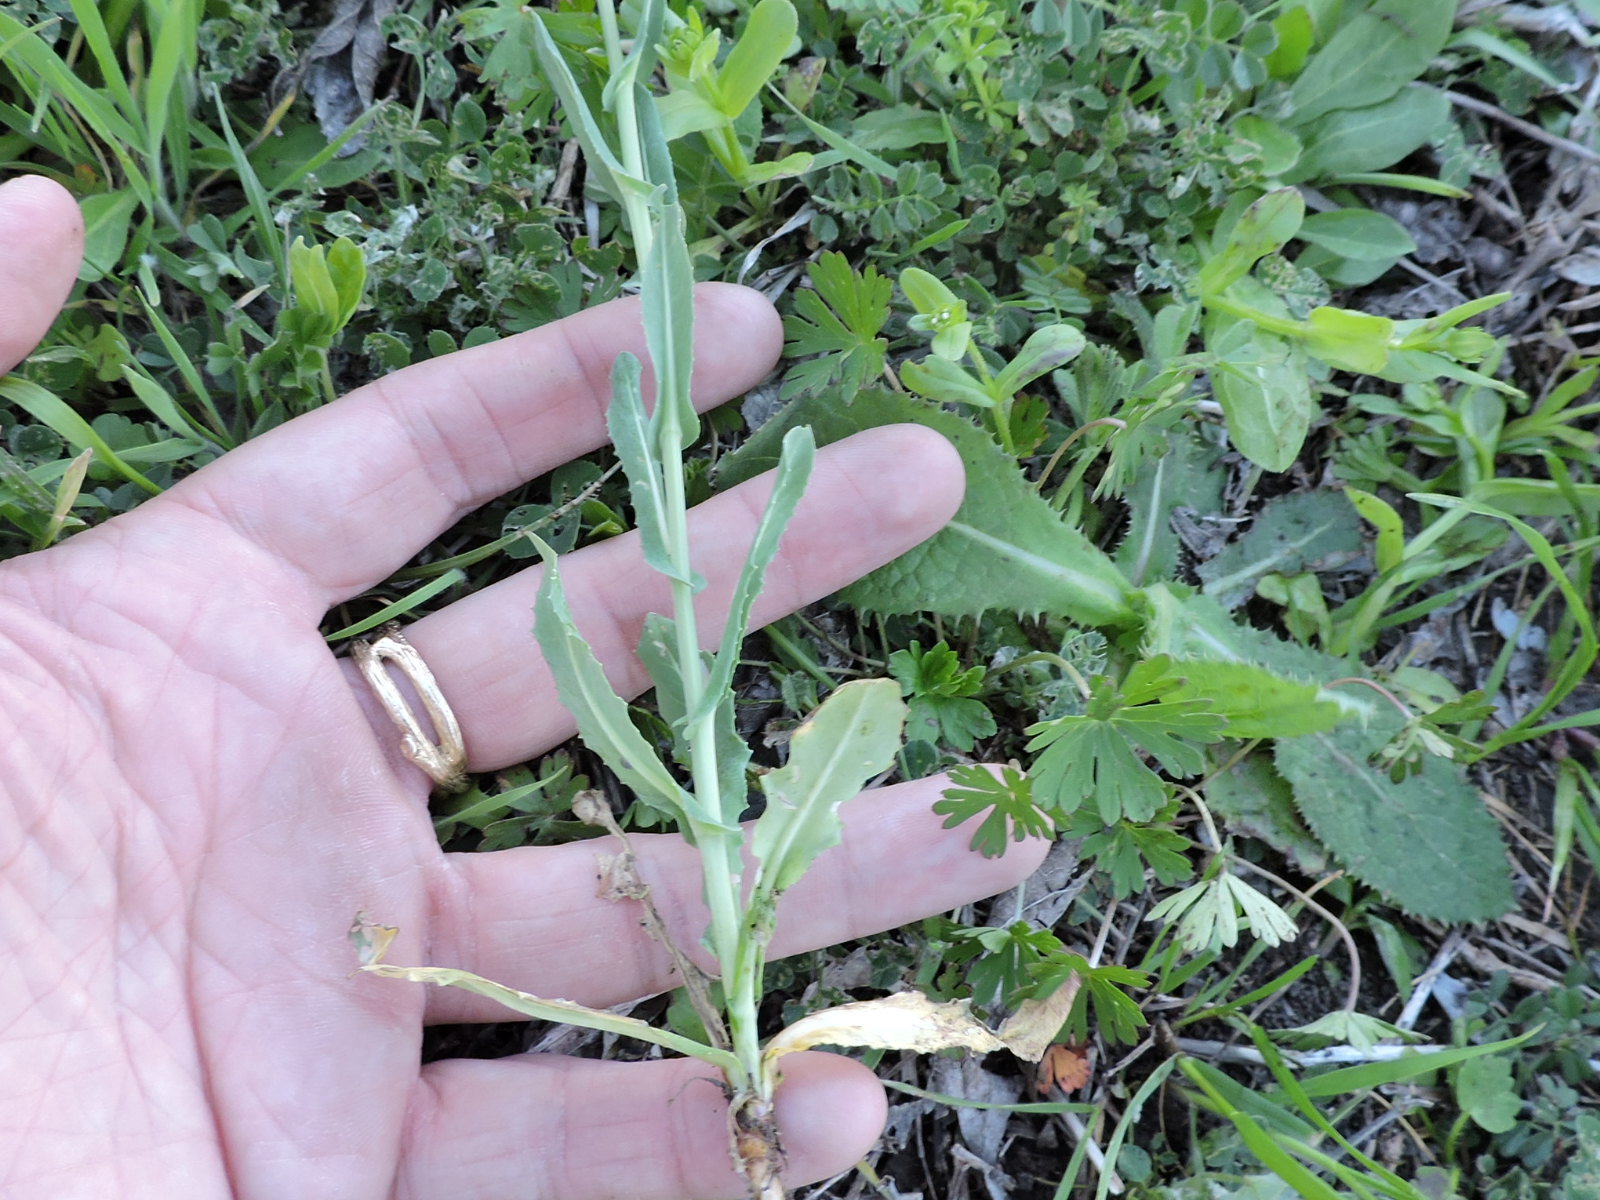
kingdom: Plantae
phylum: Tracheophyta
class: Magnoliopsida
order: Brassicales
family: Brassicaceae
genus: Myagrum
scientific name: Myagrum perfoliatum
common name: Mitre cress
